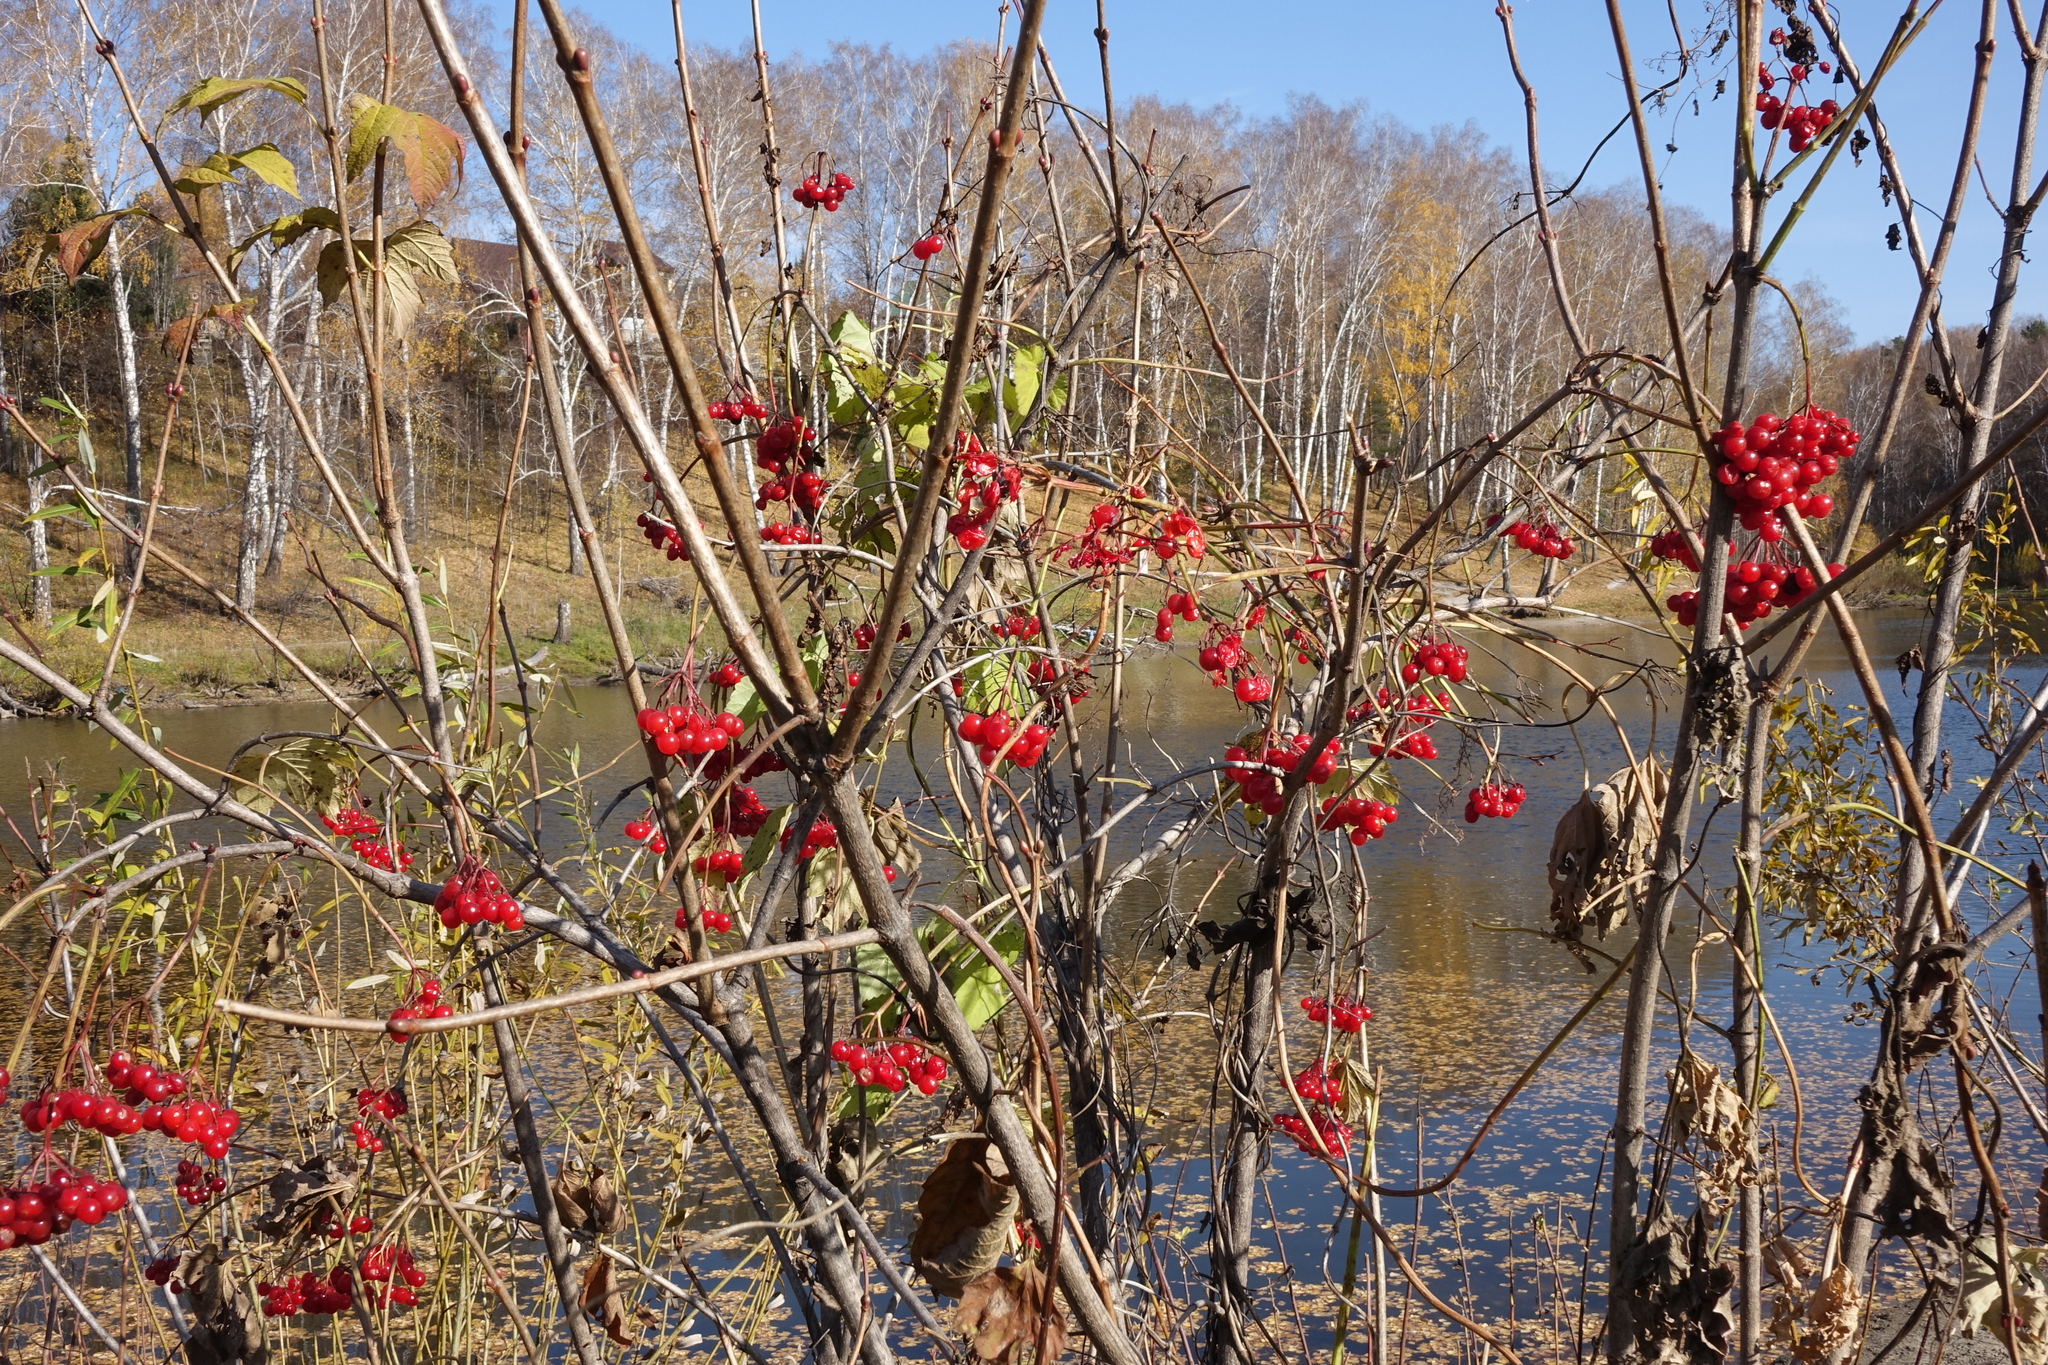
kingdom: Plantae
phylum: Tracheophyta
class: Magnoliopsida
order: Dipsacales
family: Viburnaceae
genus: Viburnum
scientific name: Viburnum opulus
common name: Guelder-rose
